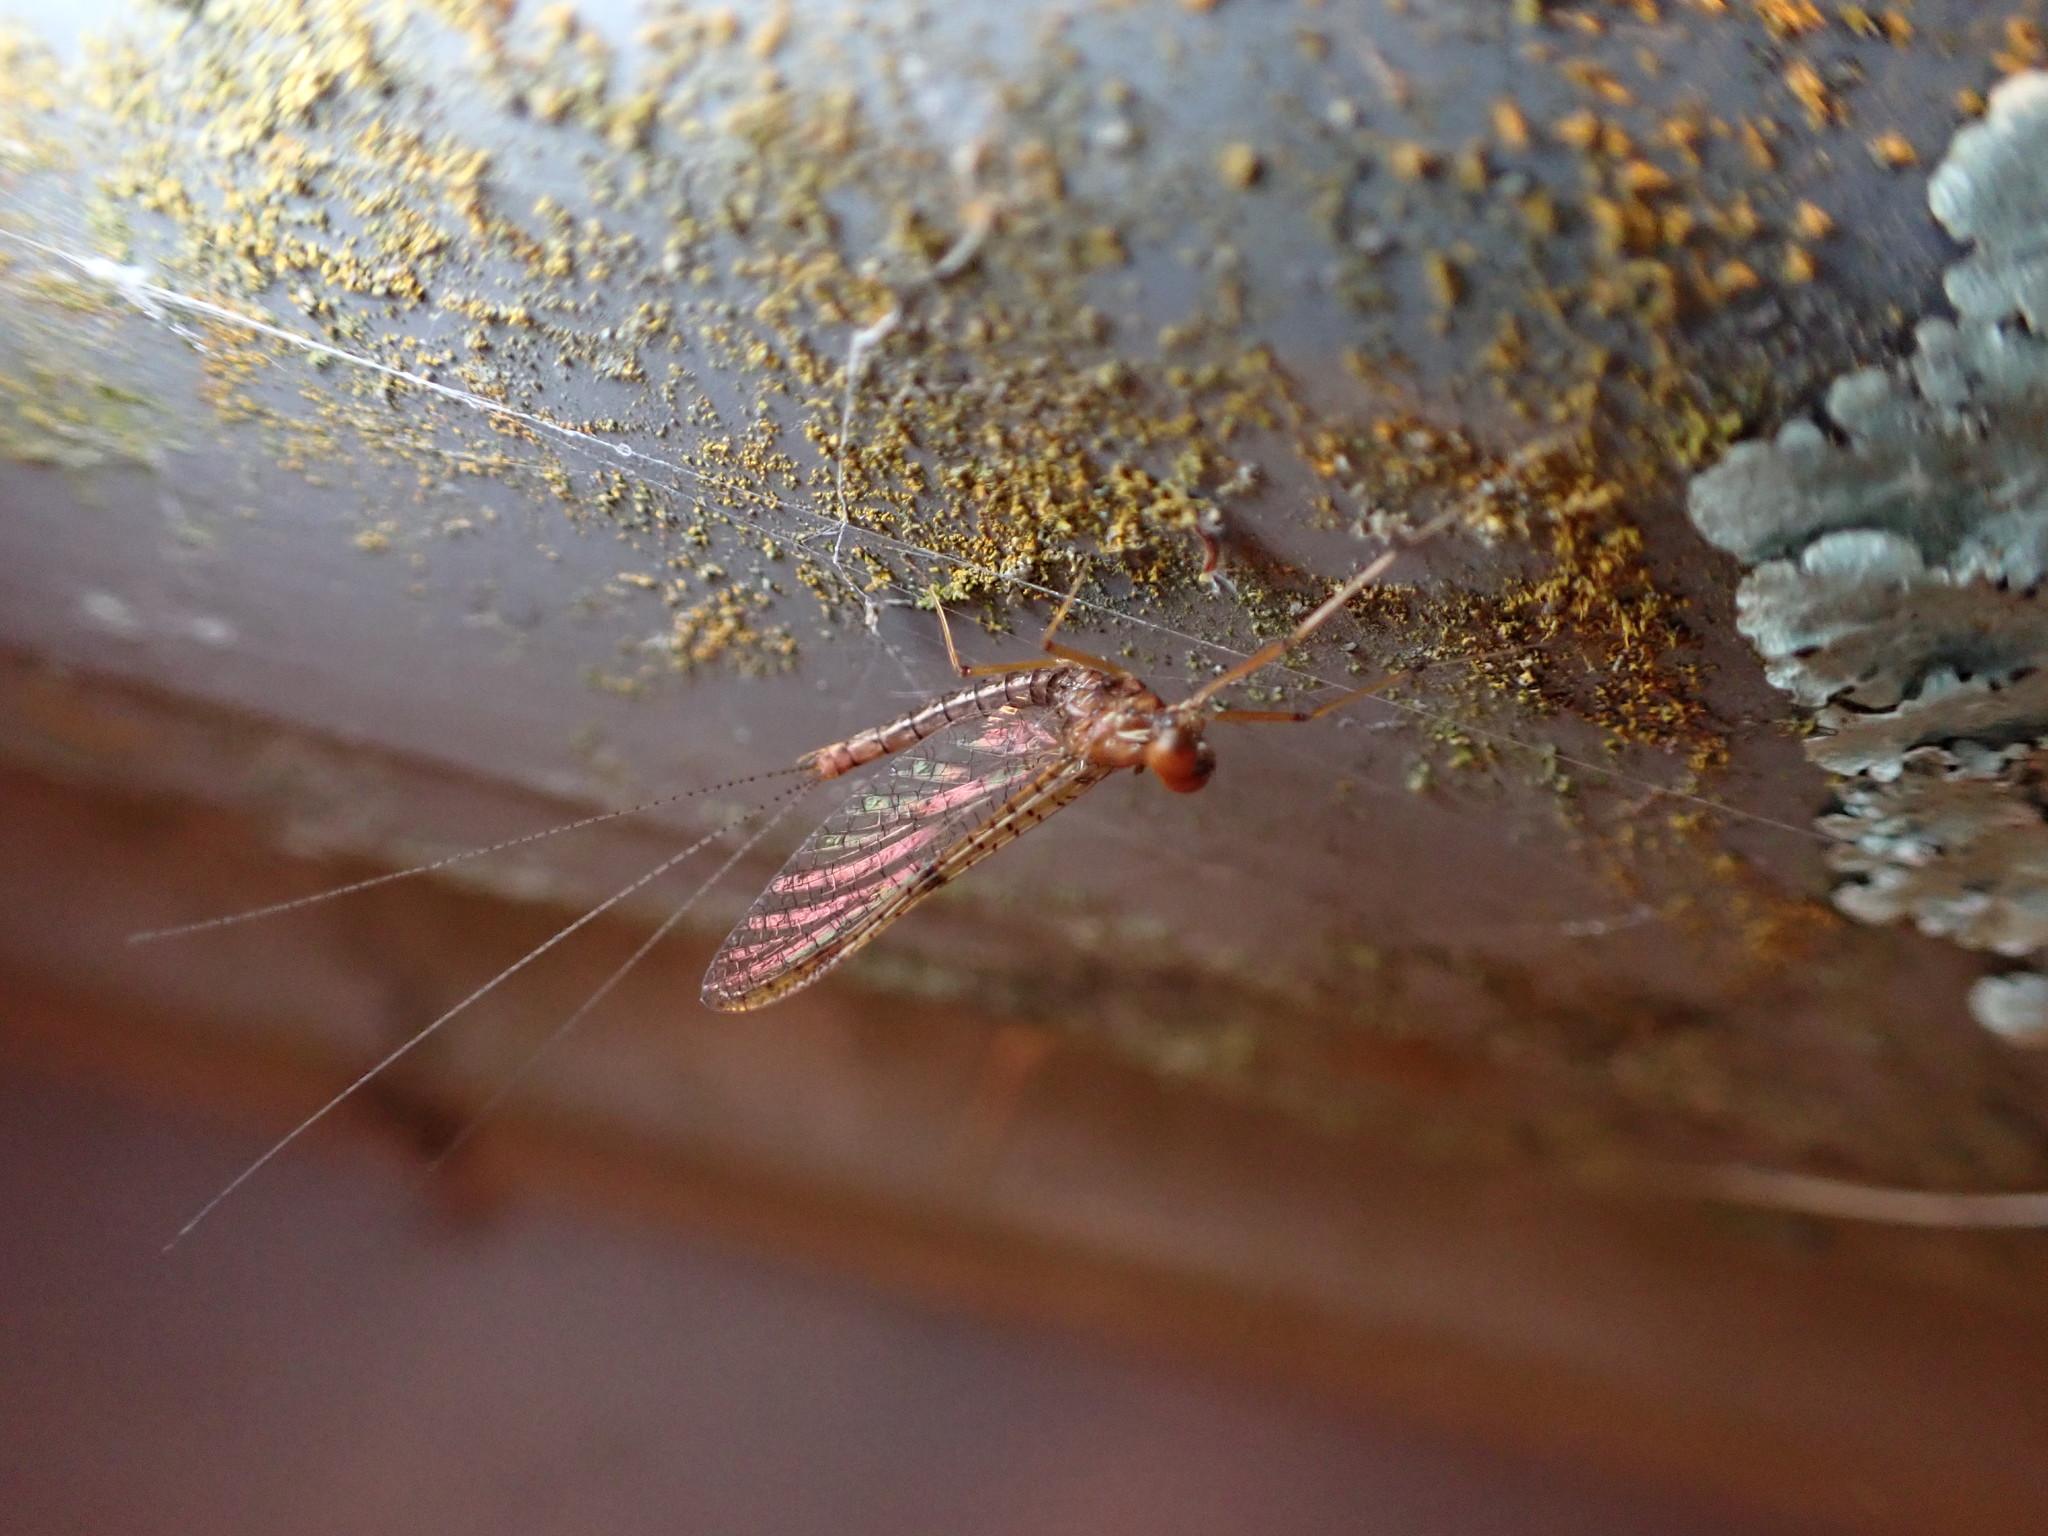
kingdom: Animalia
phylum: Arthropoda
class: Insecta
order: Ephemeroptera
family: Leptophlebiidae
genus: Zephlebia
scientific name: Zephlebia dentata
